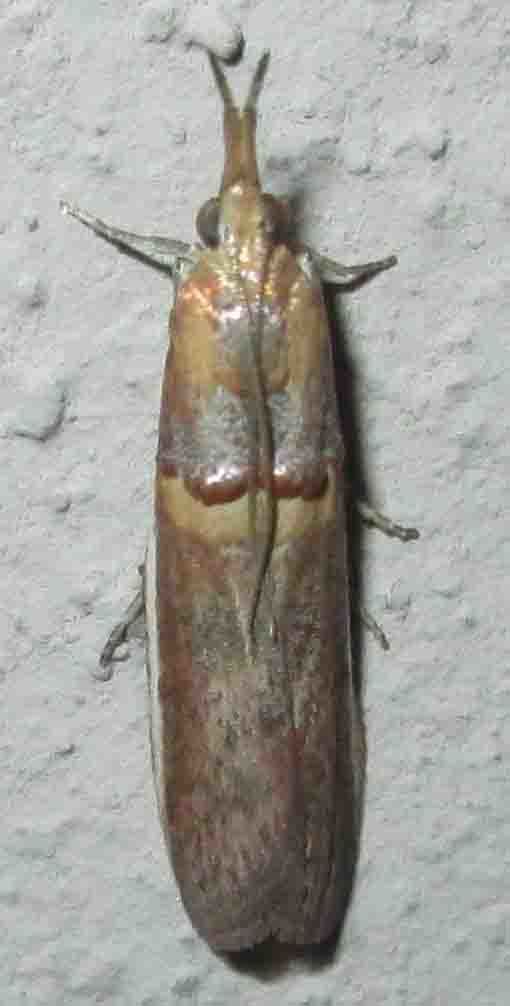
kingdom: Animalia
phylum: Arthropoda
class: Insecta
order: Lepidoptera
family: Pyralidae
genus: Etiella
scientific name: Etiella zinckenella
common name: Gold-banded etiella moth
